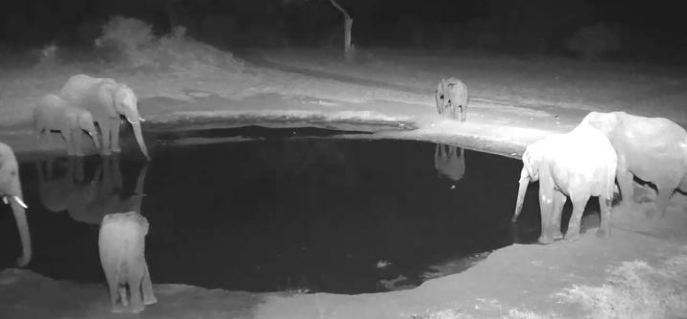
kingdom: Animalia
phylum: Chordata
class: Mammalia
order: Proboscidea
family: Elephantidae
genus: Loxodonta
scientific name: Loxodonta africana
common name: African elephant
